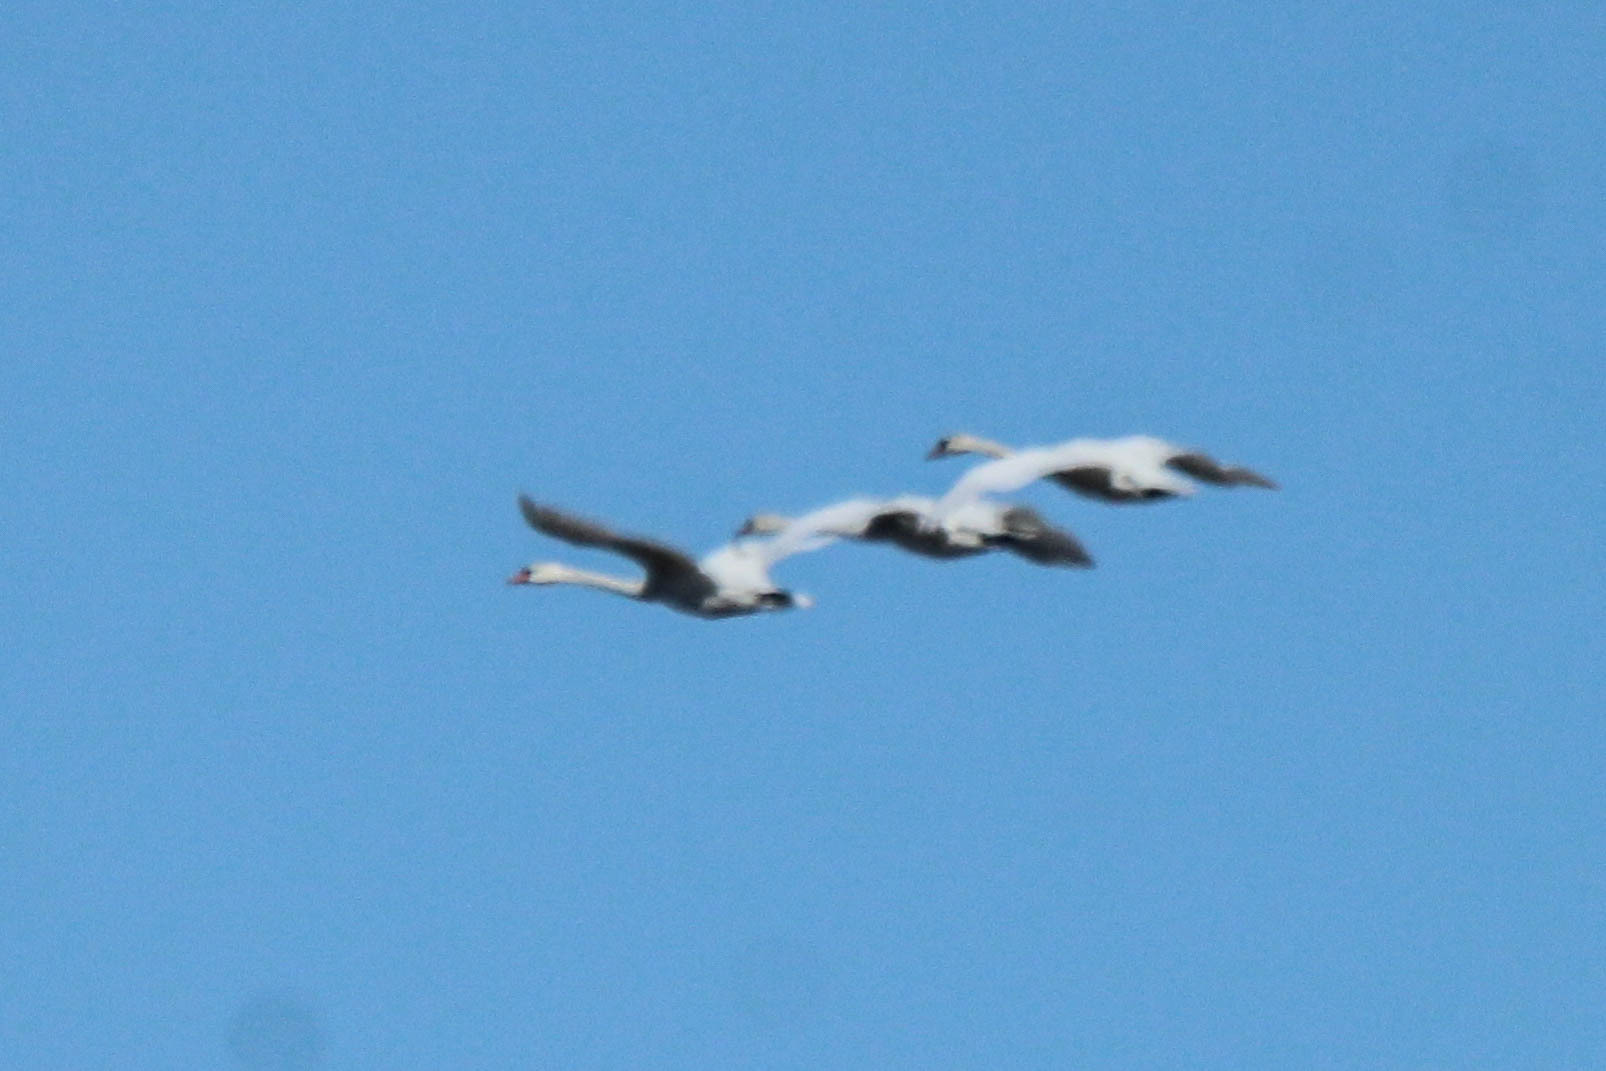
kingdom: Animalia
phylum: Chordata
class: Aves
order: Anseriformes
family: Anatidae
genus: Cygnus
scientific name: Cygnus olor
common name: Mute swan
